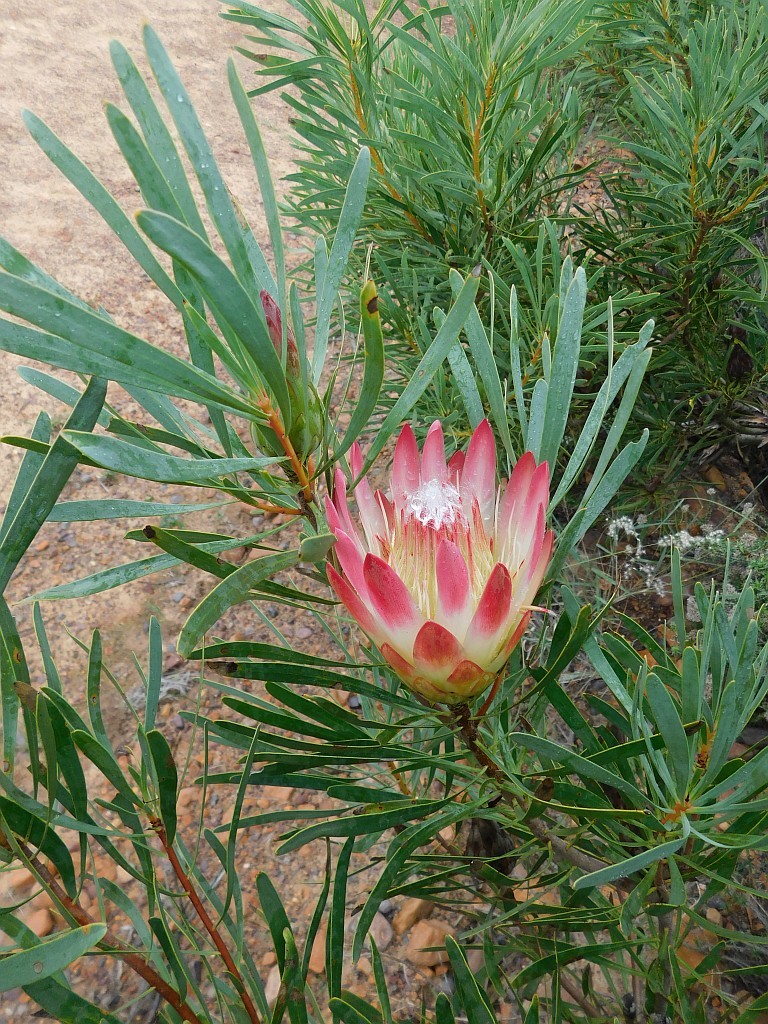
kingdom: Plantae
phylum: Tracheophyta
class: Magnoliopsida
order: Proteales
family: Proteaceae
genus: Protea
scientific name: Protea repens
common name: Sugarbush
